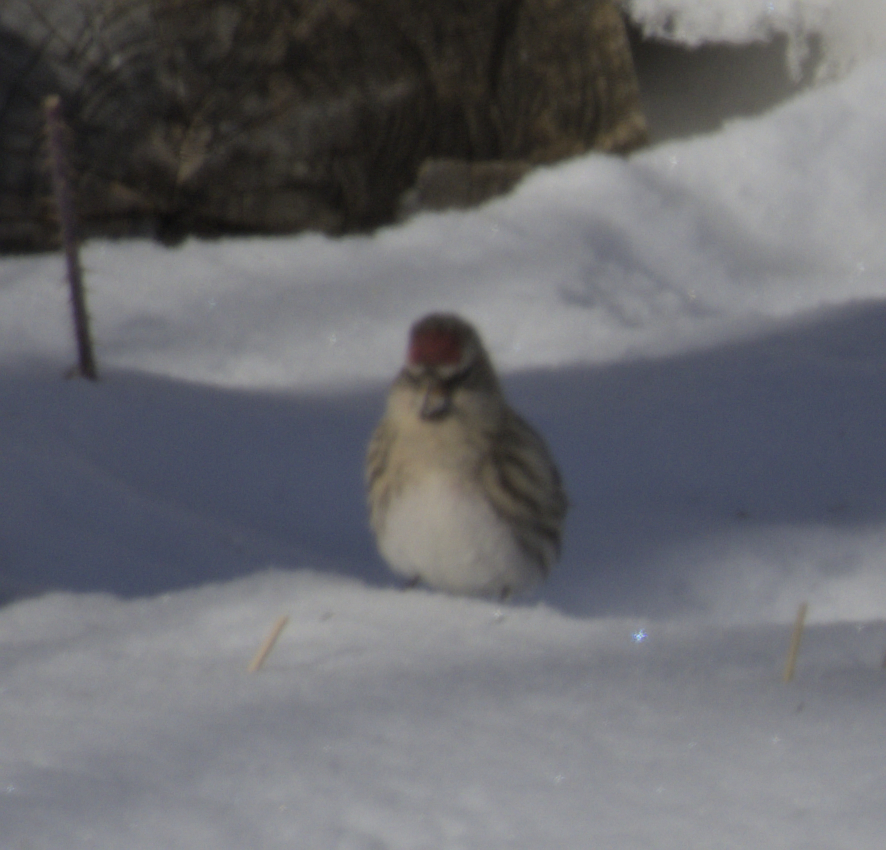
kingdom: Animalia
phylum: Chordata
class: Aves
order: Passeriformes
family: Fringillidae
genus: Acanthis
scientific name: Acanthis flammea
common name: Common redpoll
